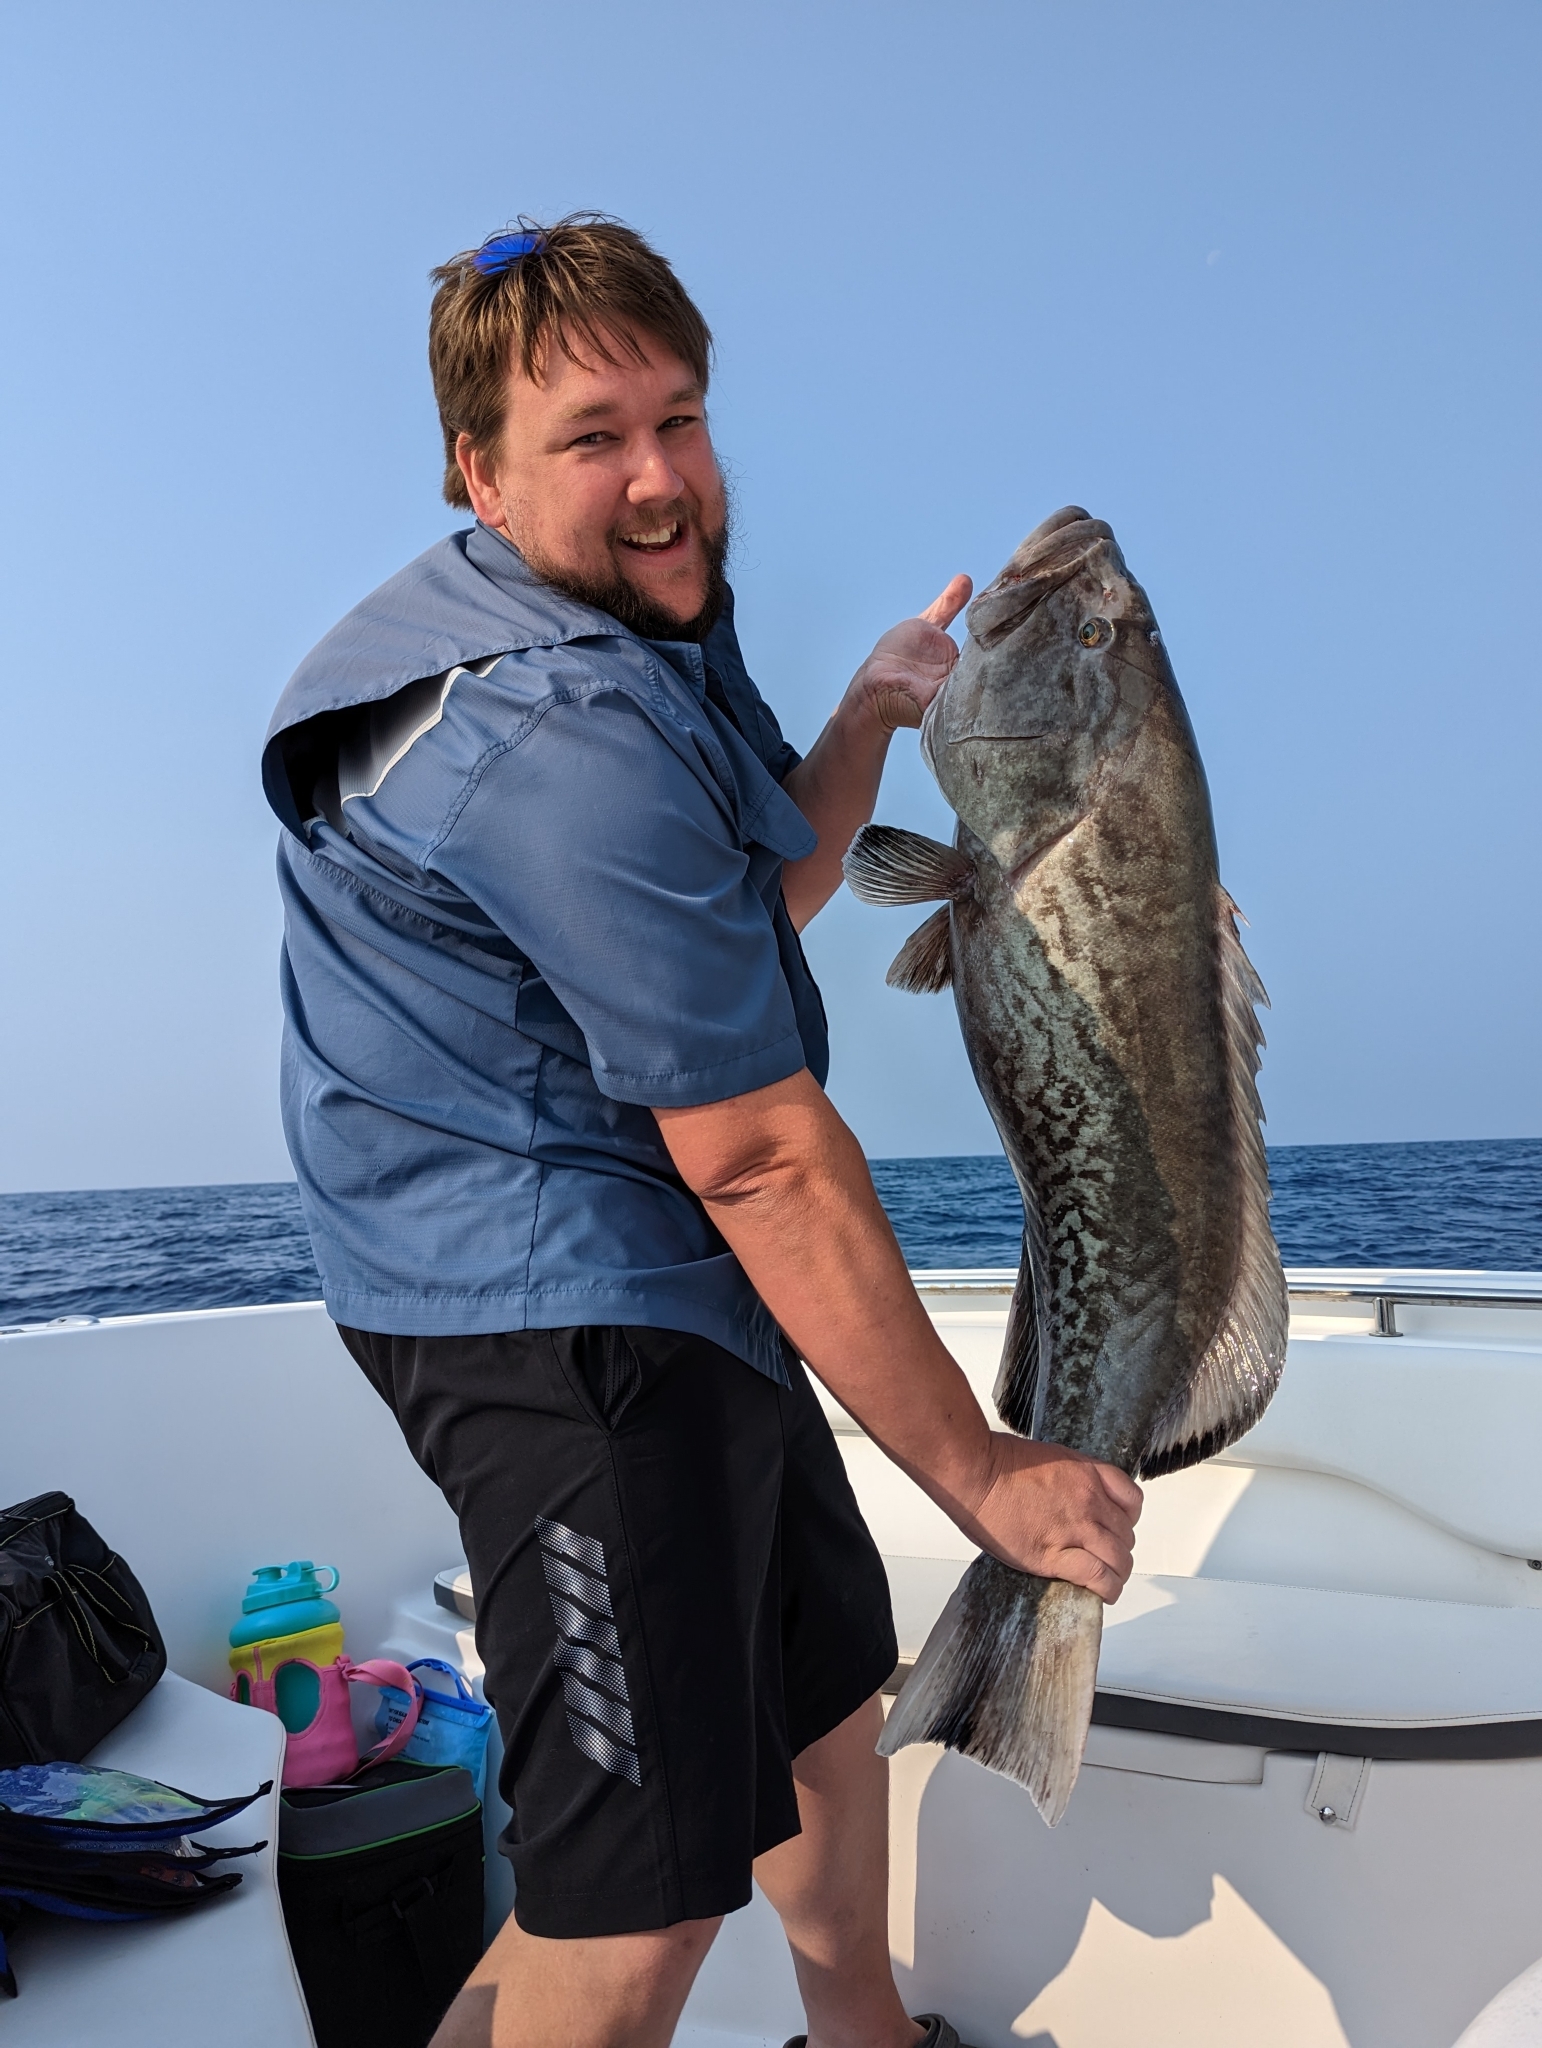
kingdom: Animalia
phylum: Chordata
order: Perciformes
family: Serranidae
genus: Mycteroperca
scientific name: Mycteroperca microlepis
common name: Gag
